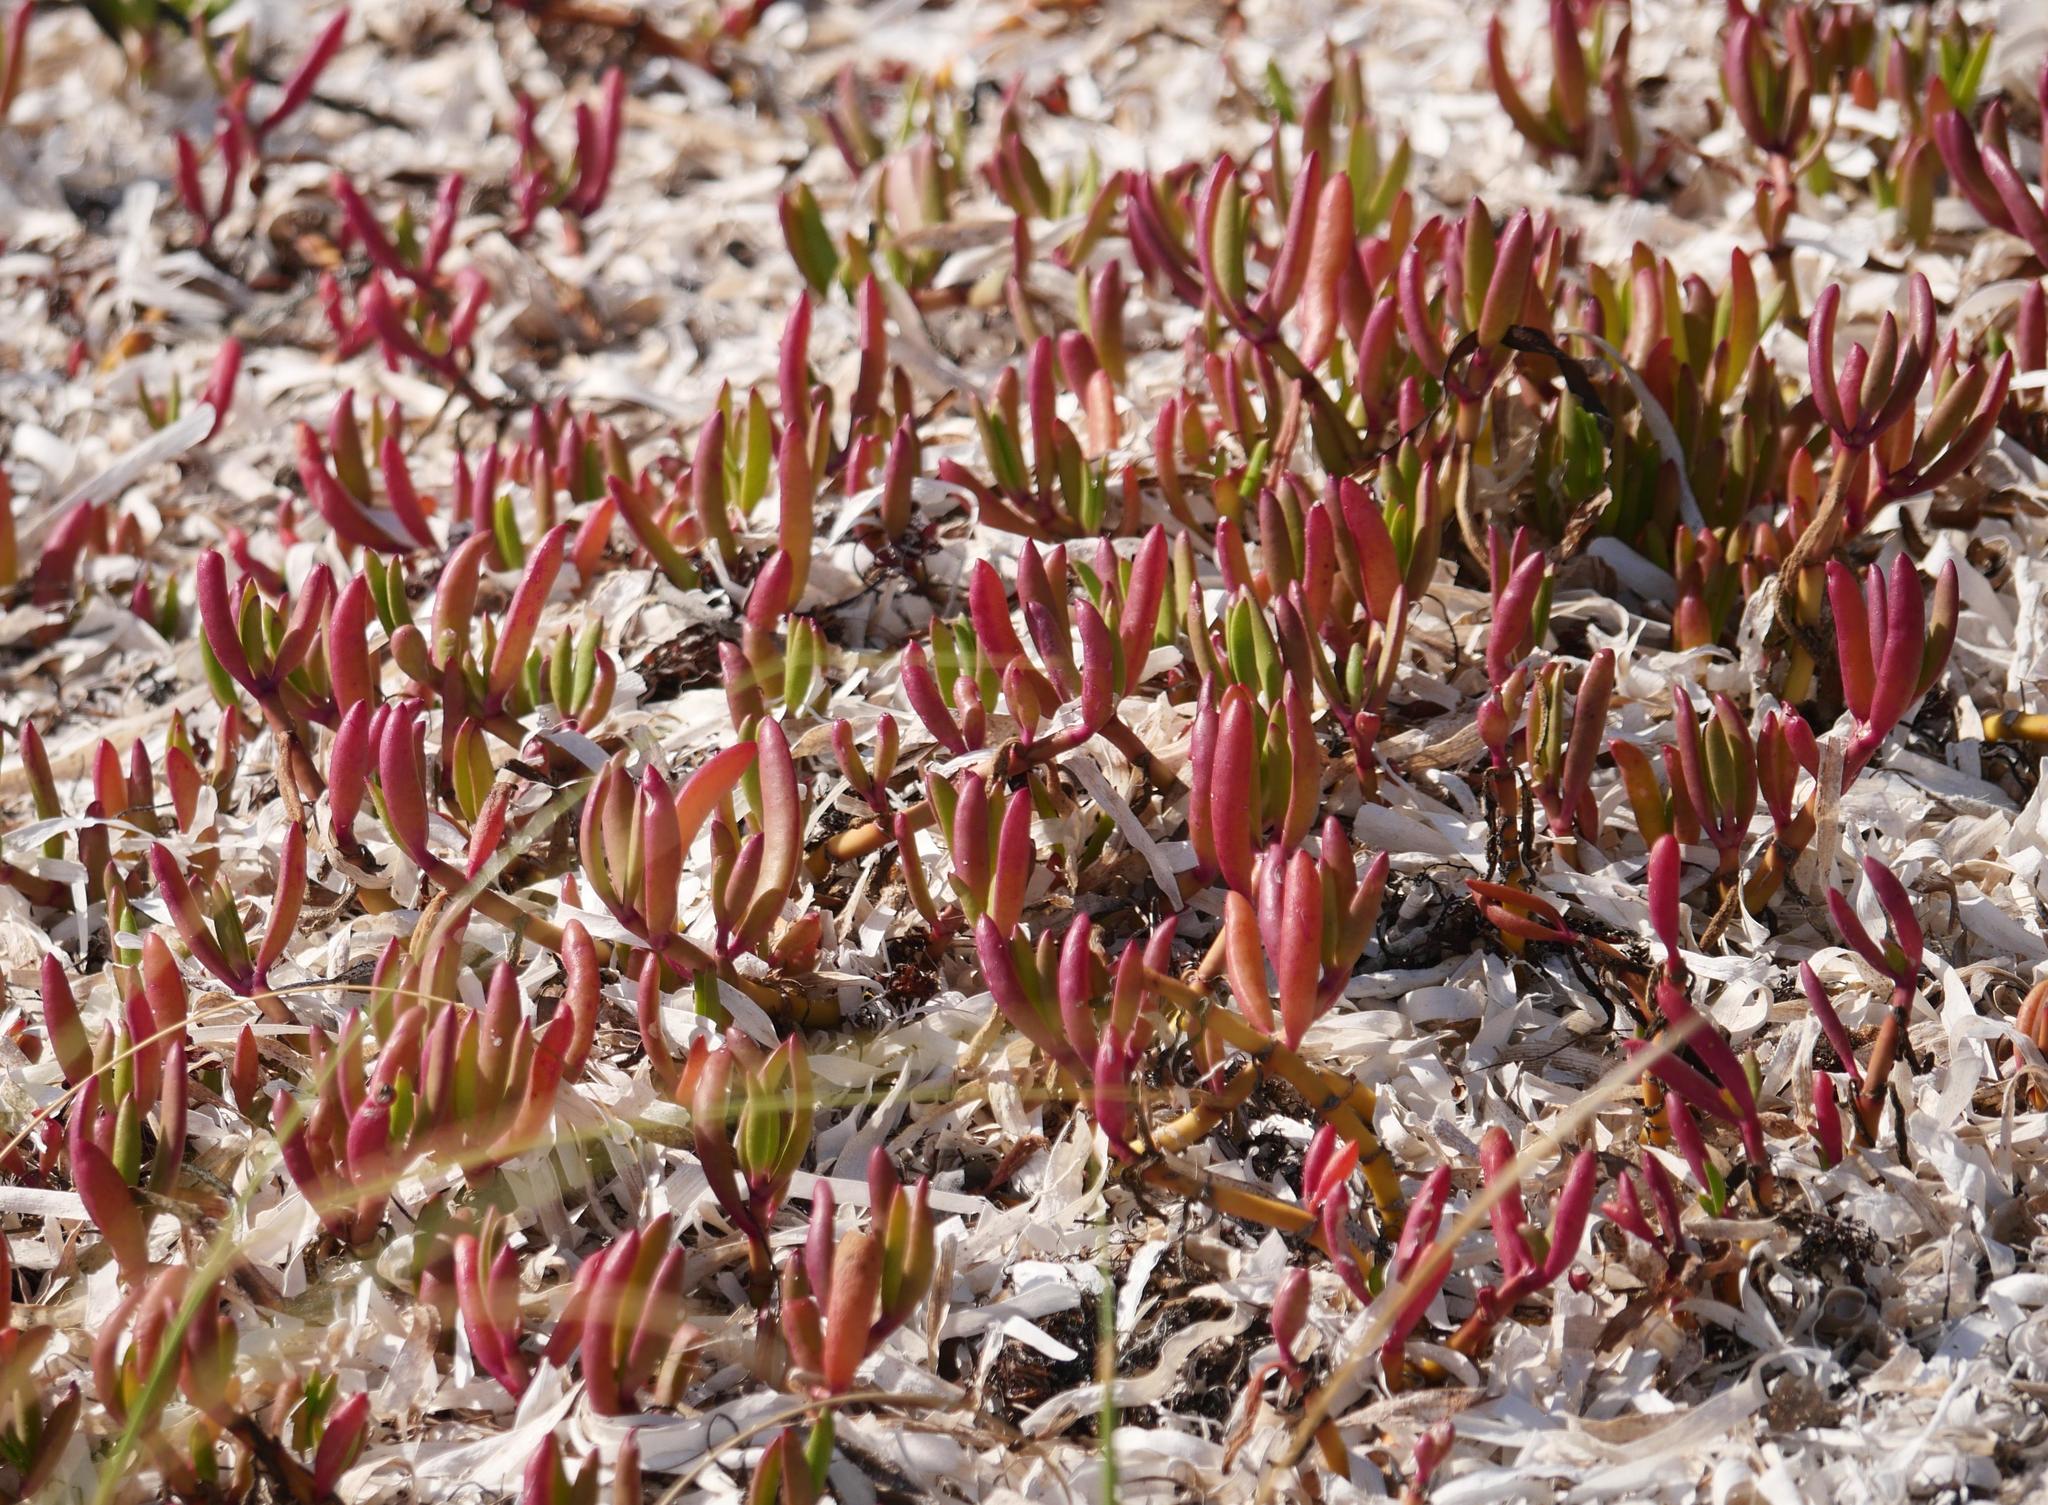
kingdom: Plantae
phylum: Tracheophyta
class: Magnoliopsida
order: Caryophyllales
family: Aizoaceae
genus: Sesuvium
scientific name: Sesuvium portulacastrum
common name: Sea-purslane
